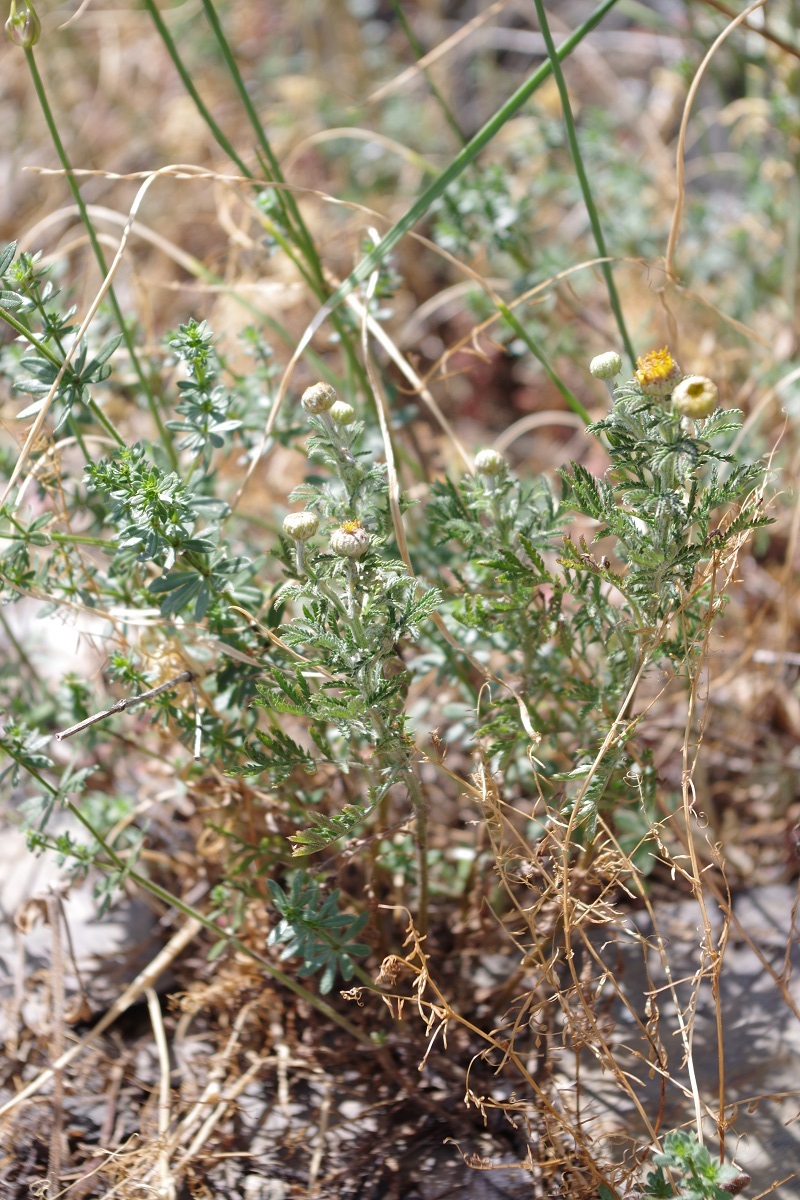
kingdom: Plantae
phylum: Tracheophyta
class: Magnoliopsida
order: Asterales
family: Asteraceae
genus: Cota
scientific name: Cota tinctoria
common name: Golden chamomile
